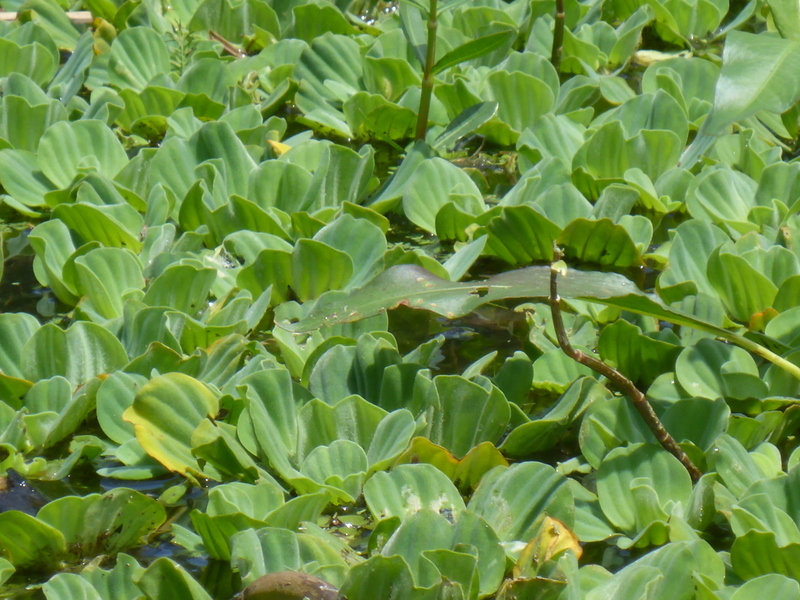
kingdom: Plantae
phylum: Tracheophyta
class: Liliopsida
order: Alismatales
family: Araceae
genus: Pistia
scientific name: Pistia stratiotes
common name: Water lettuce
